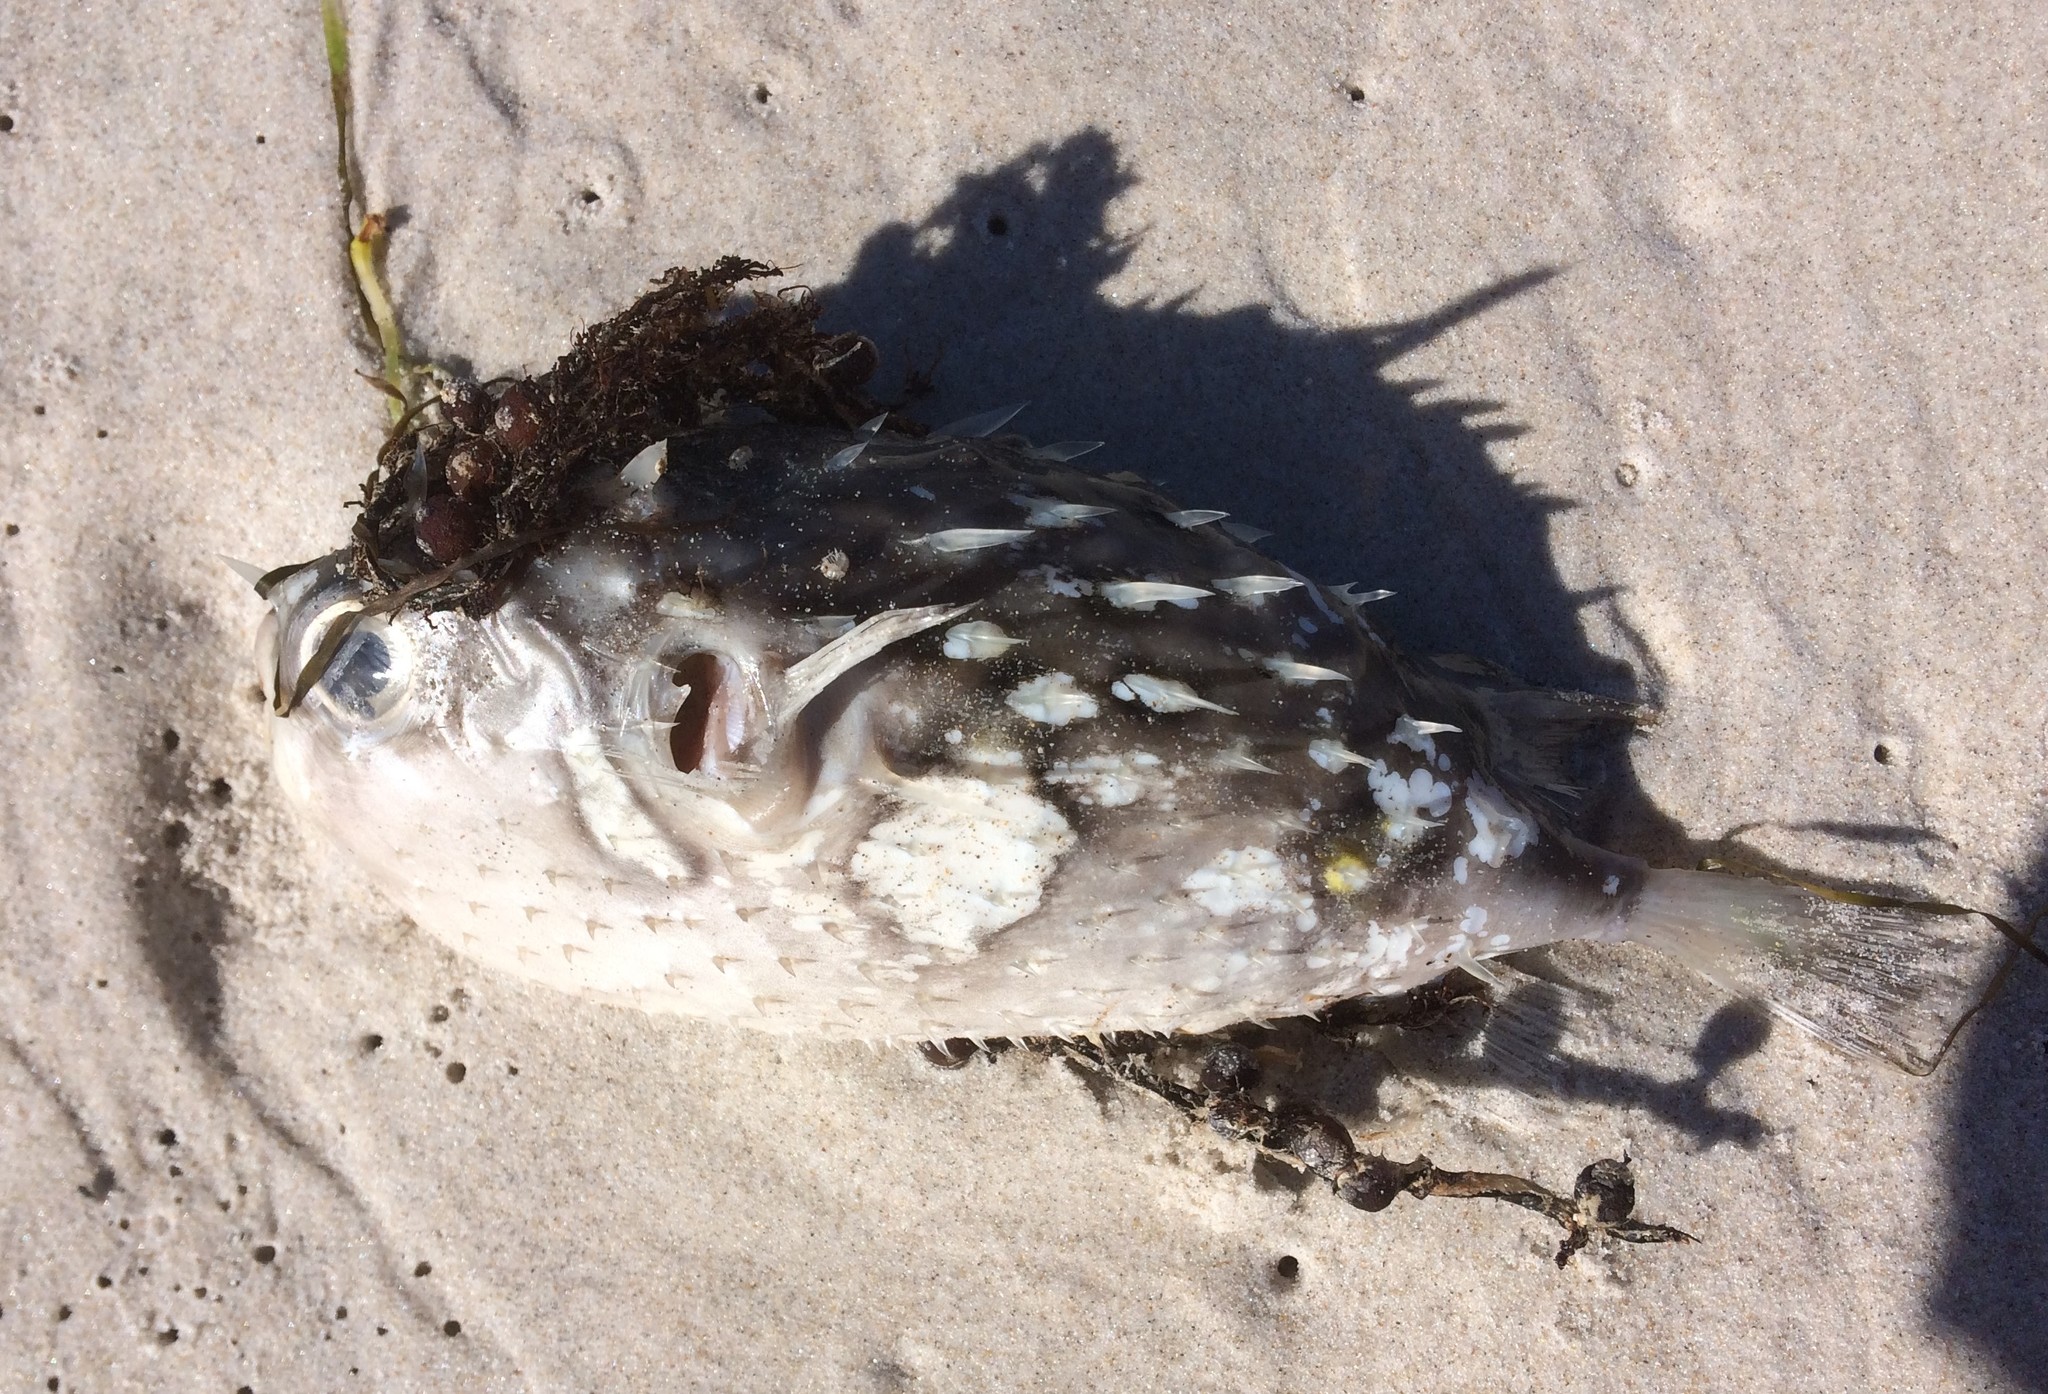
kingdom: Animalia
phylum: Chordata
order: Tetraodontiformes
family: Diodontidae
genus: Allomycterus
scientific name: Allomycterus pilatus
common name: No common name
